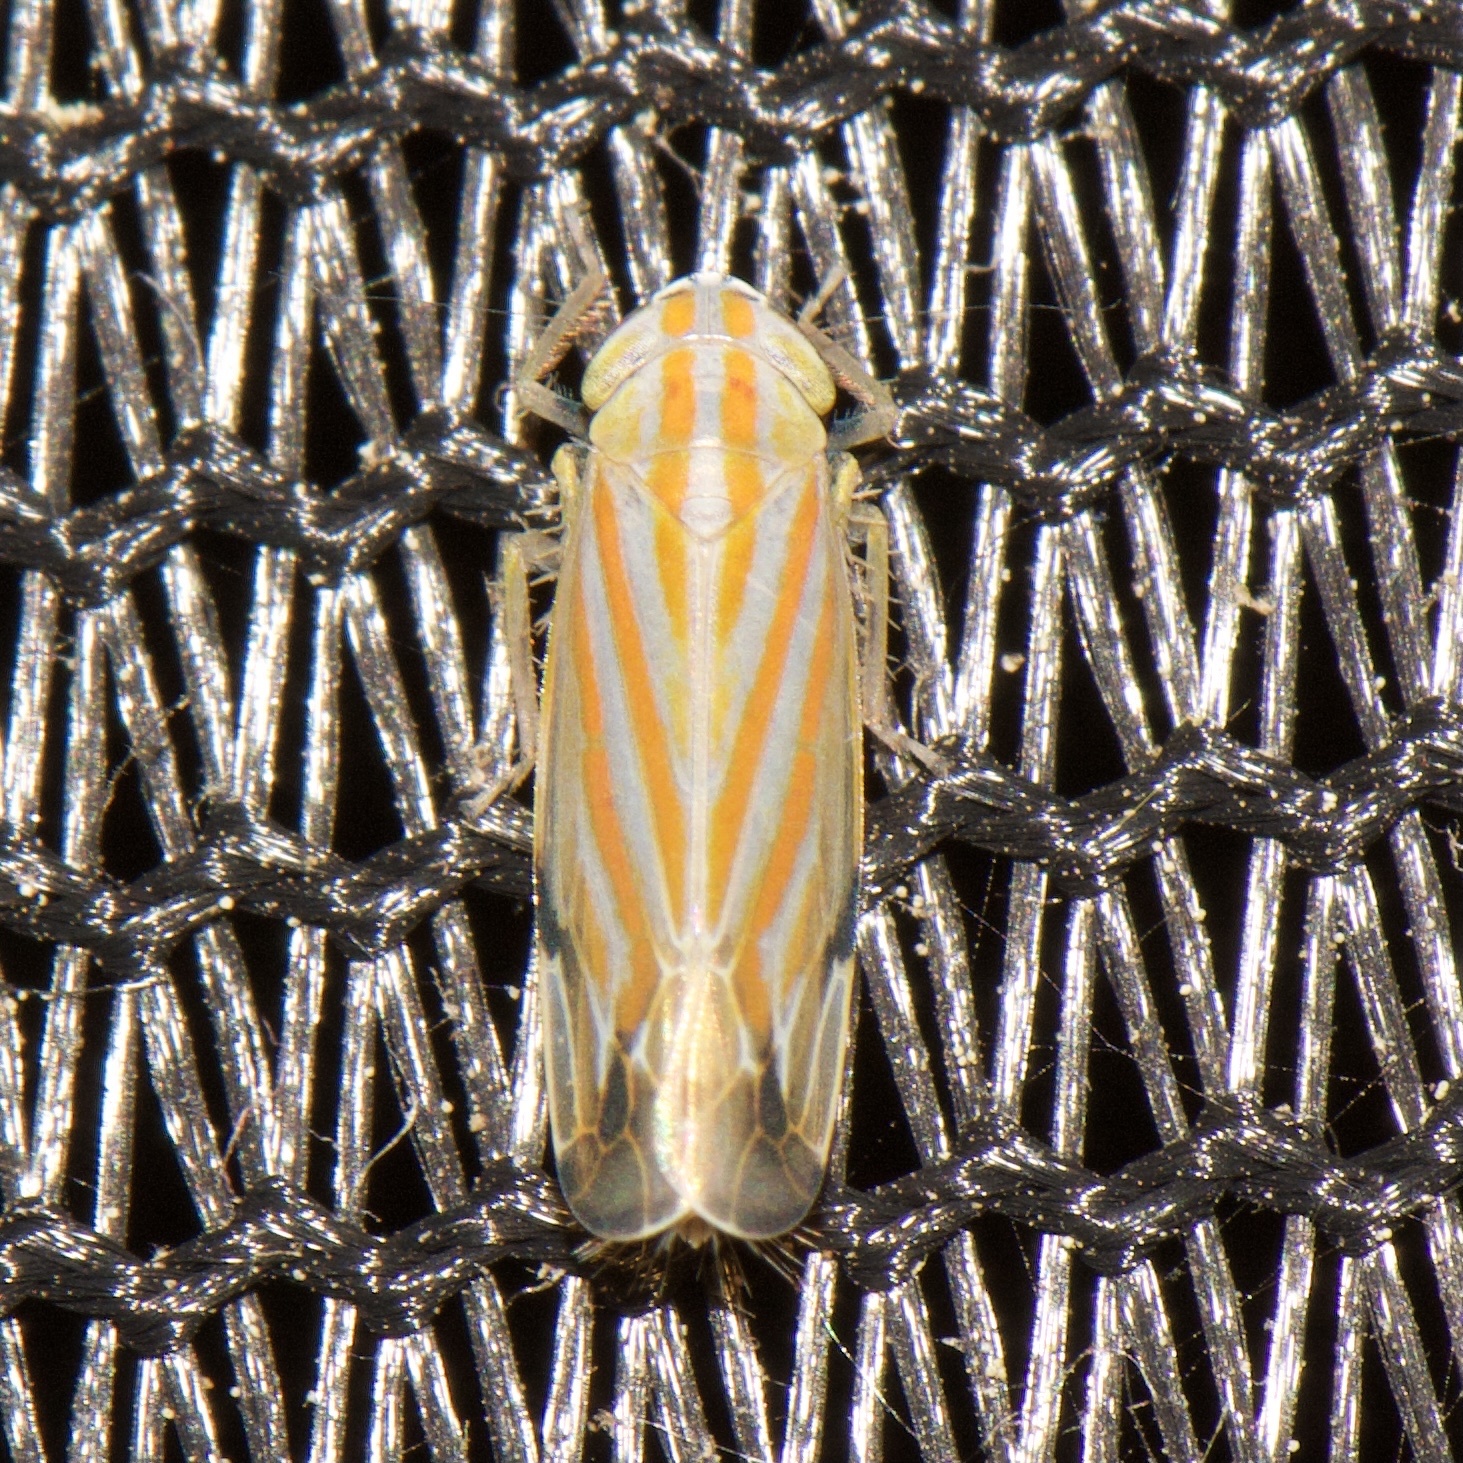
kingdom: Animalia
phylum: Arthropoda
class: Insecta
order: Hemiptera
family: Cicadellidae
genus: Deltanus
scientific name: Deltanus texanus
